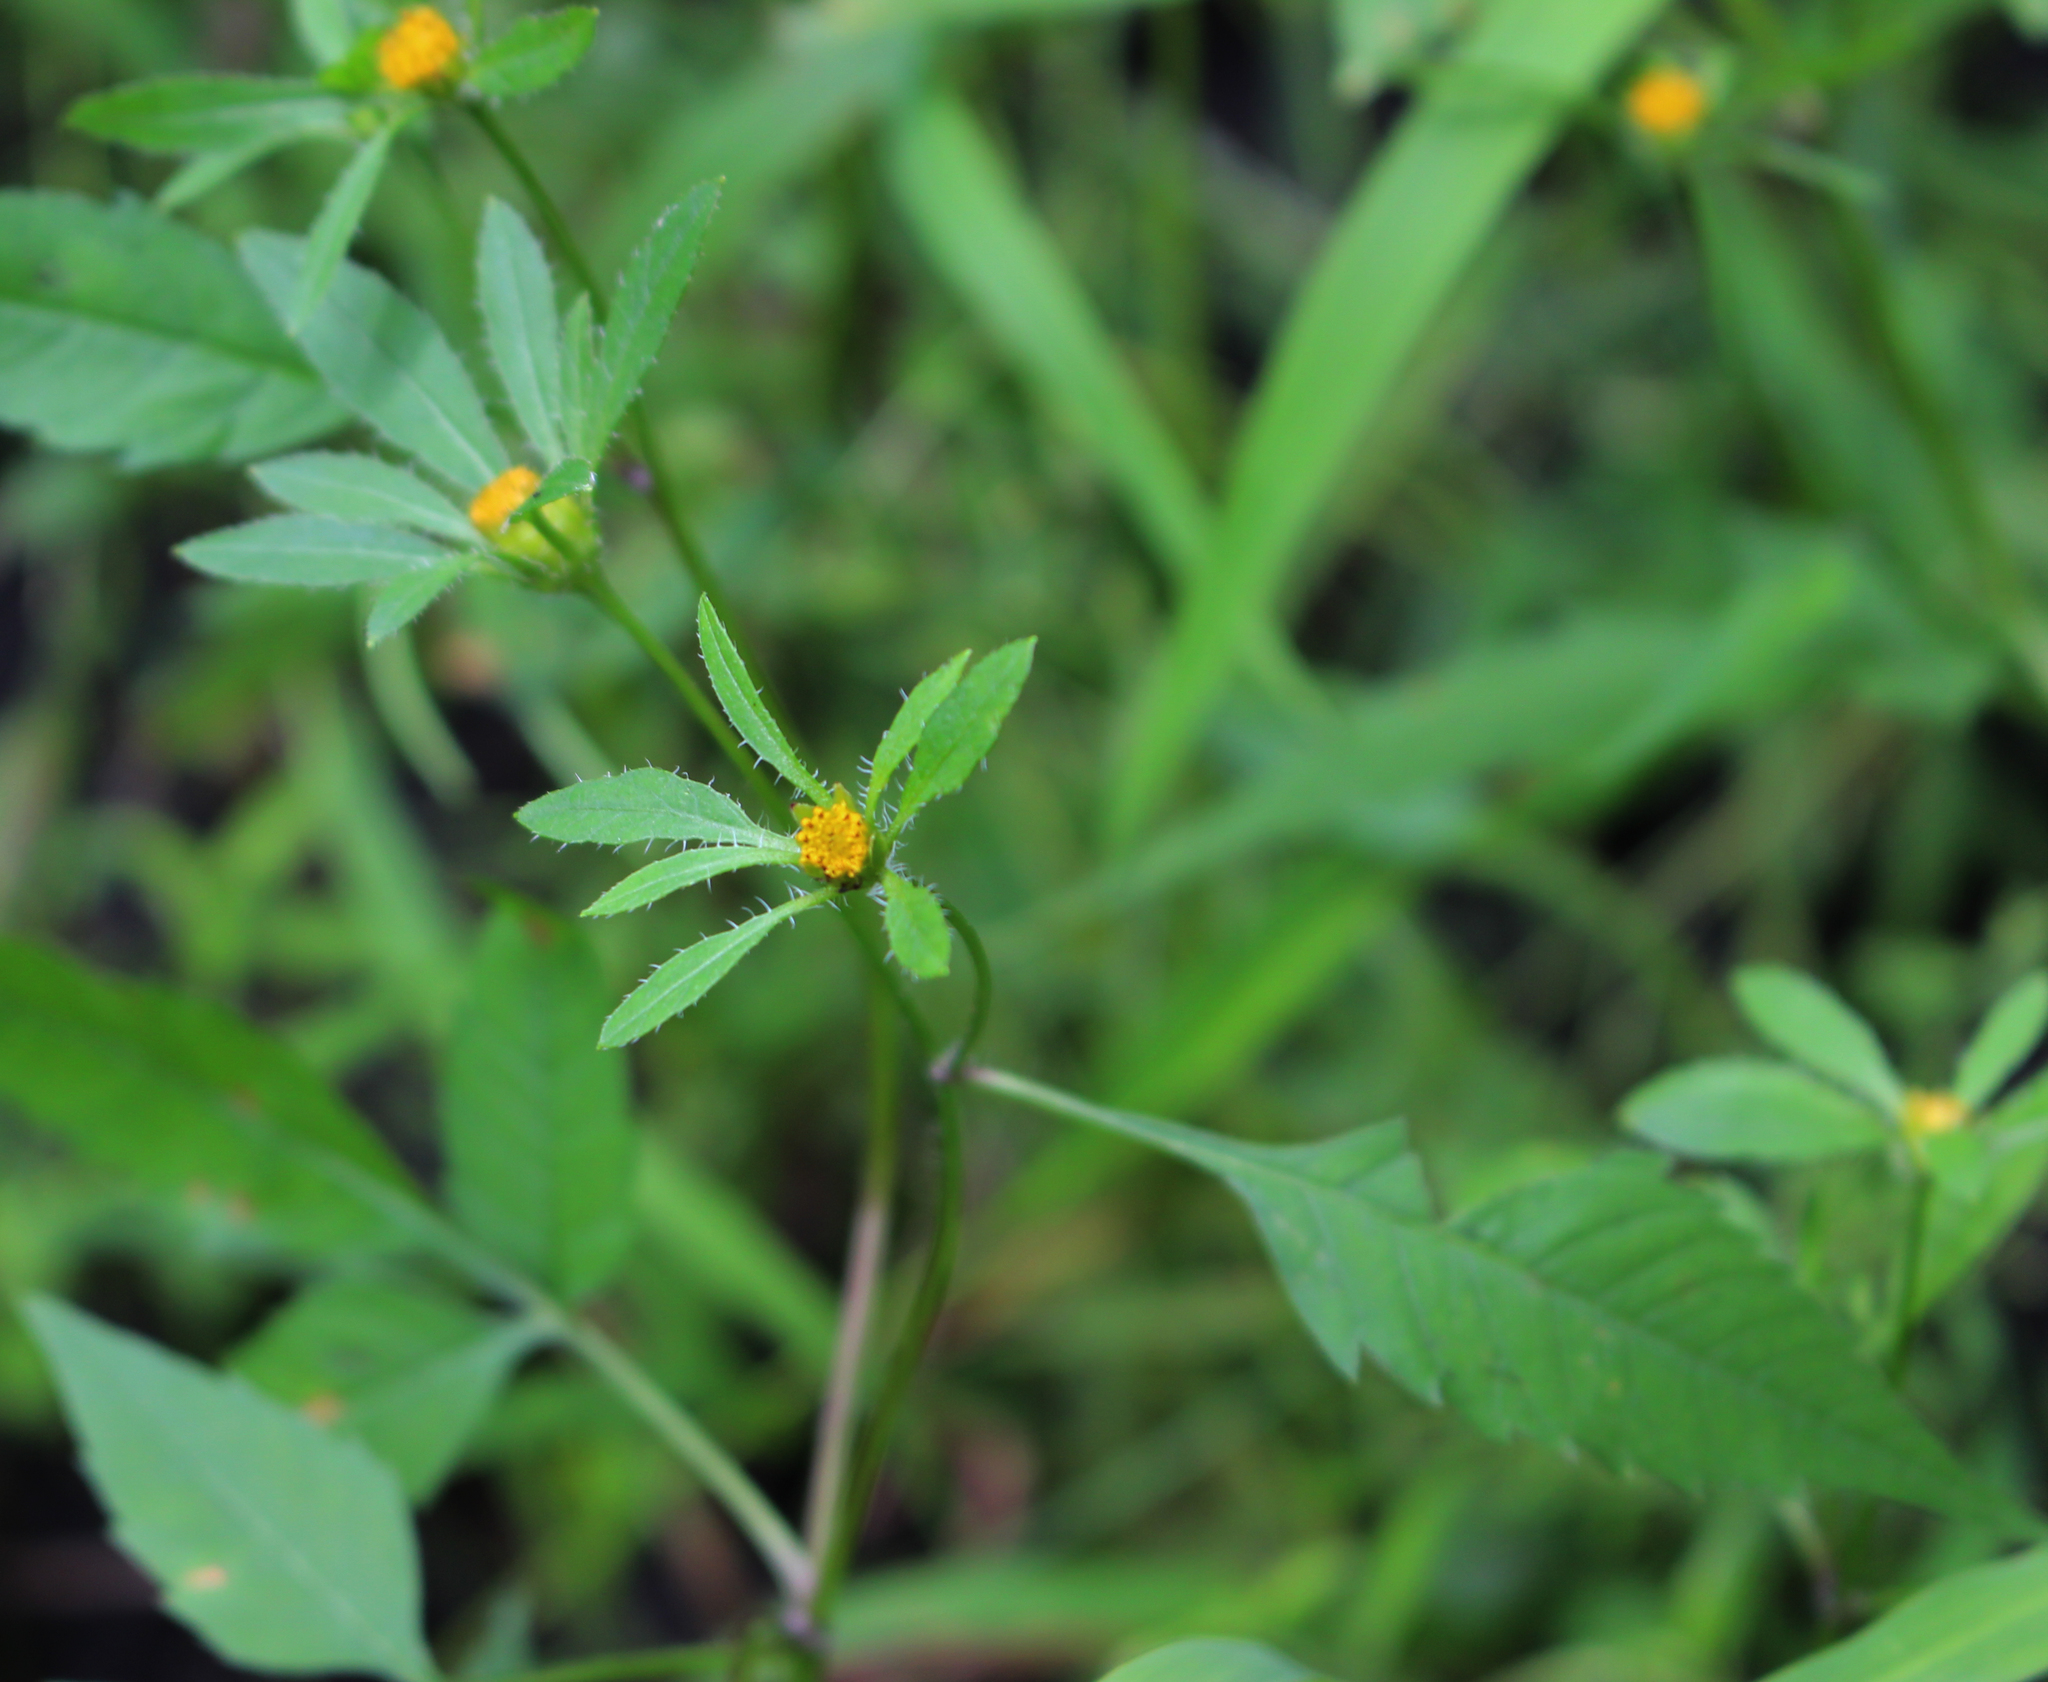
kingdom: Plantae
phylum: Tracheophyta
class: Magnoliopsida
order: Asterales
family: Asteraceae
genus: Bidens
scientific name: Bidens frondosa
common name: Beggarticks
